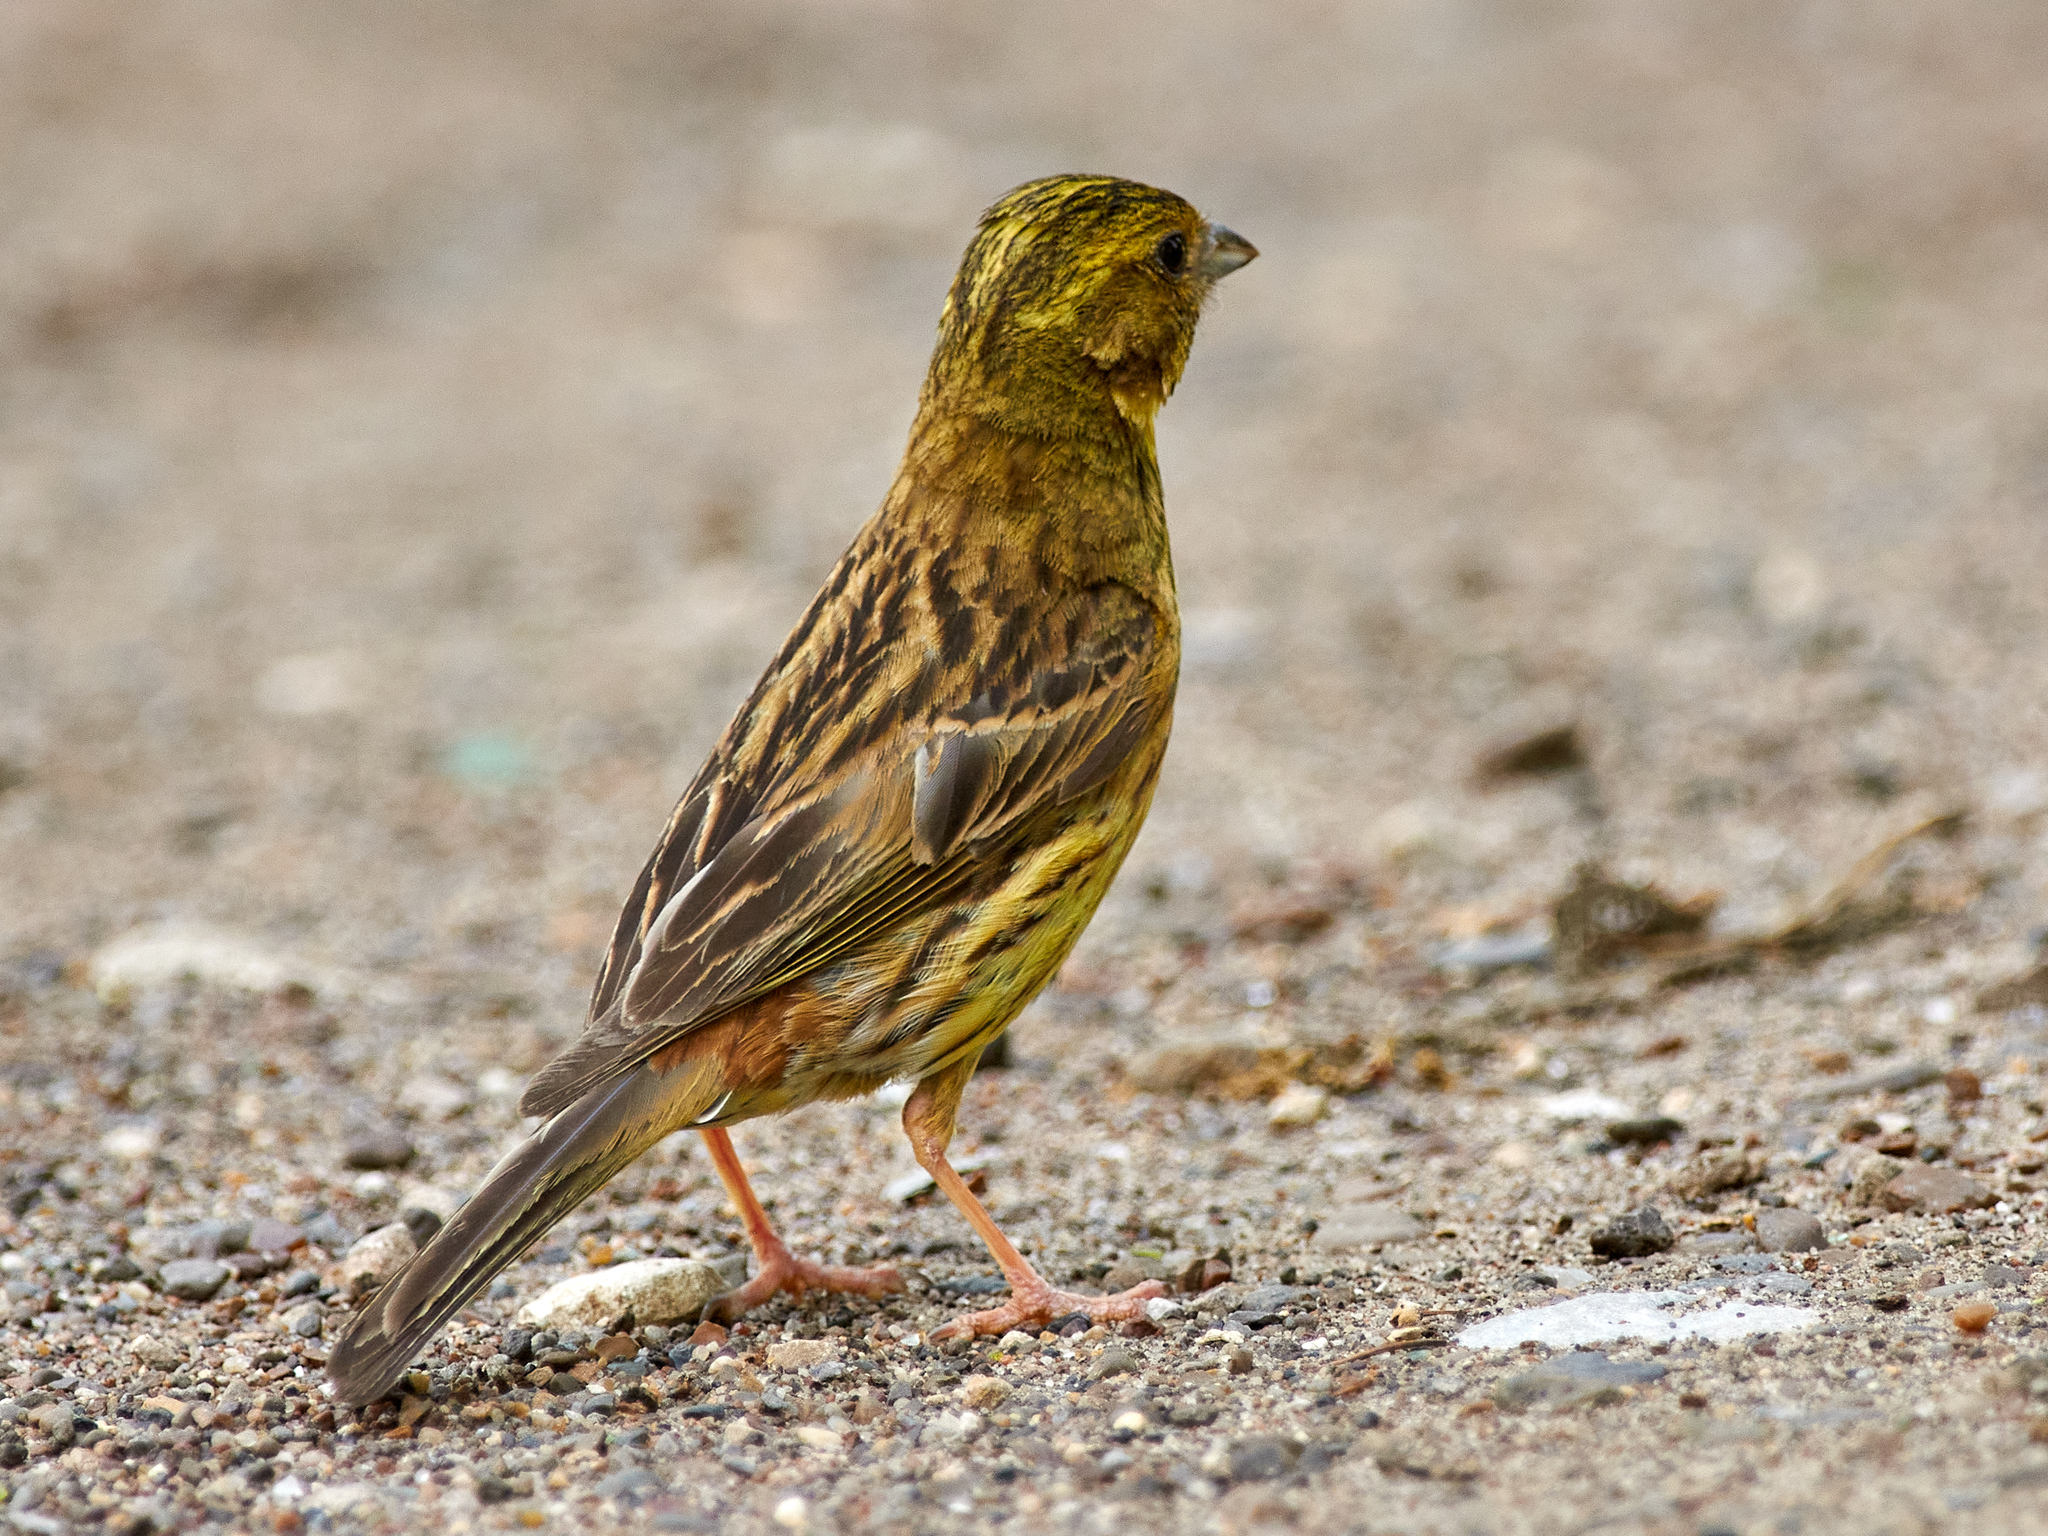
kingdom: Animalia
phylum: Chordata
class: Aves
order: Passeriformes
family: Emberizidae
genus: Emberiza
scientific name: Emberiza citrinella
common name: Yellowhammer
